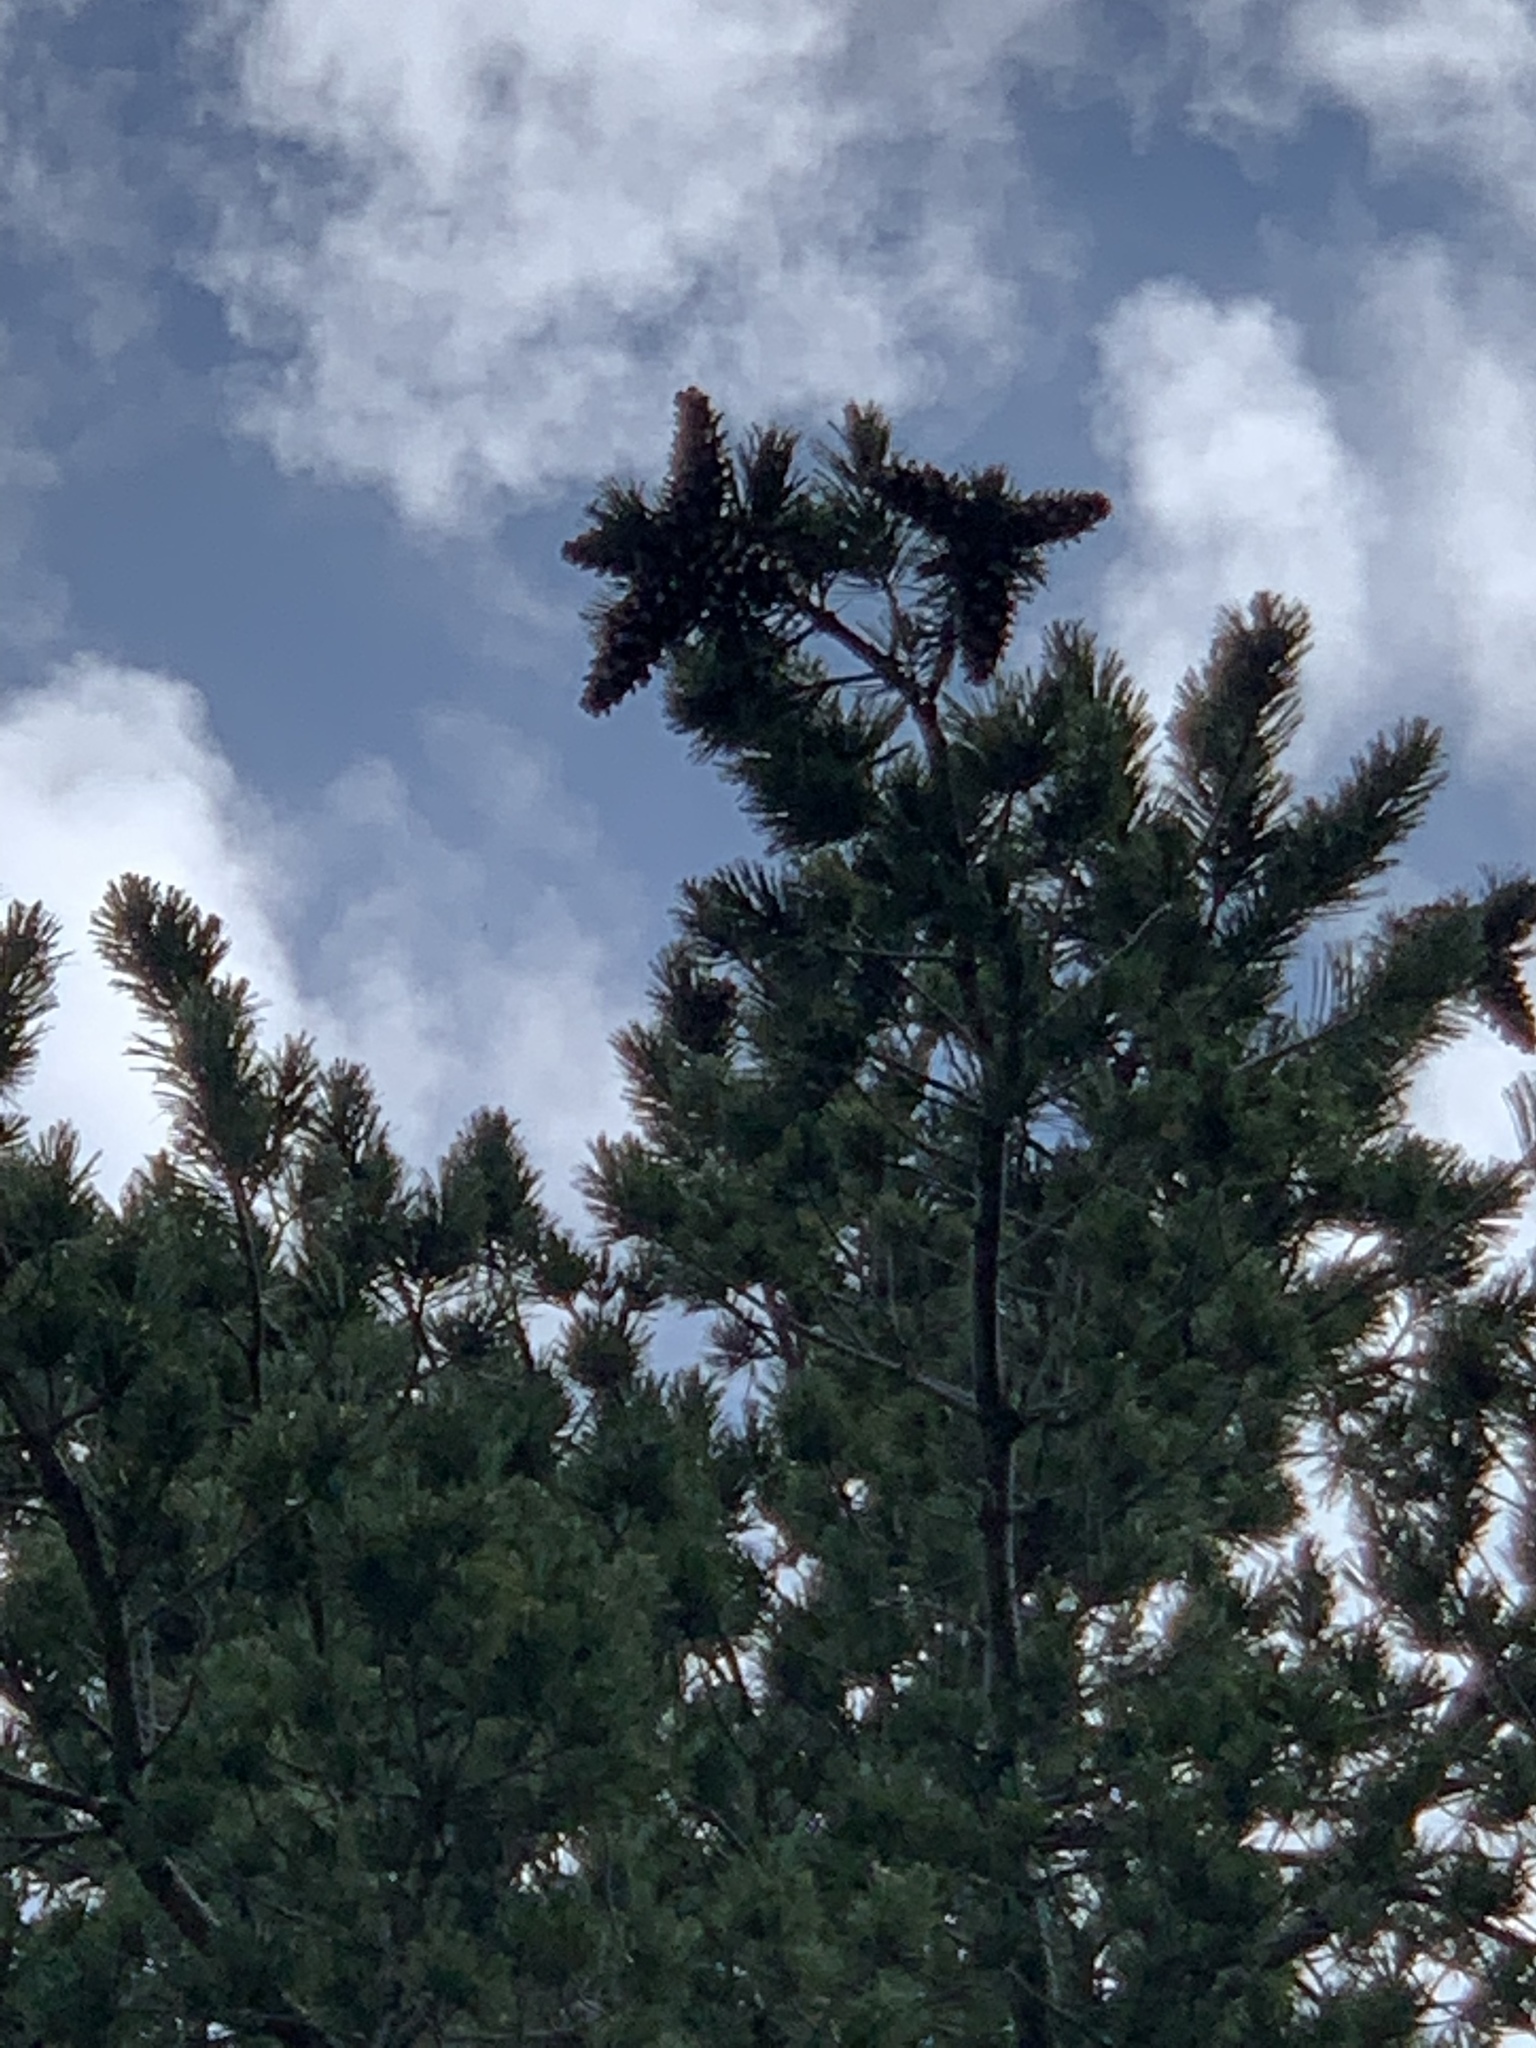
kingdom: Plantae
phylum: Tracheophyta
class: Pinopsida
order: Pinales
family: Pinaceae
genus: Pinus
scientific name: Pinus strobiformis
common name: Southwestern white pine
